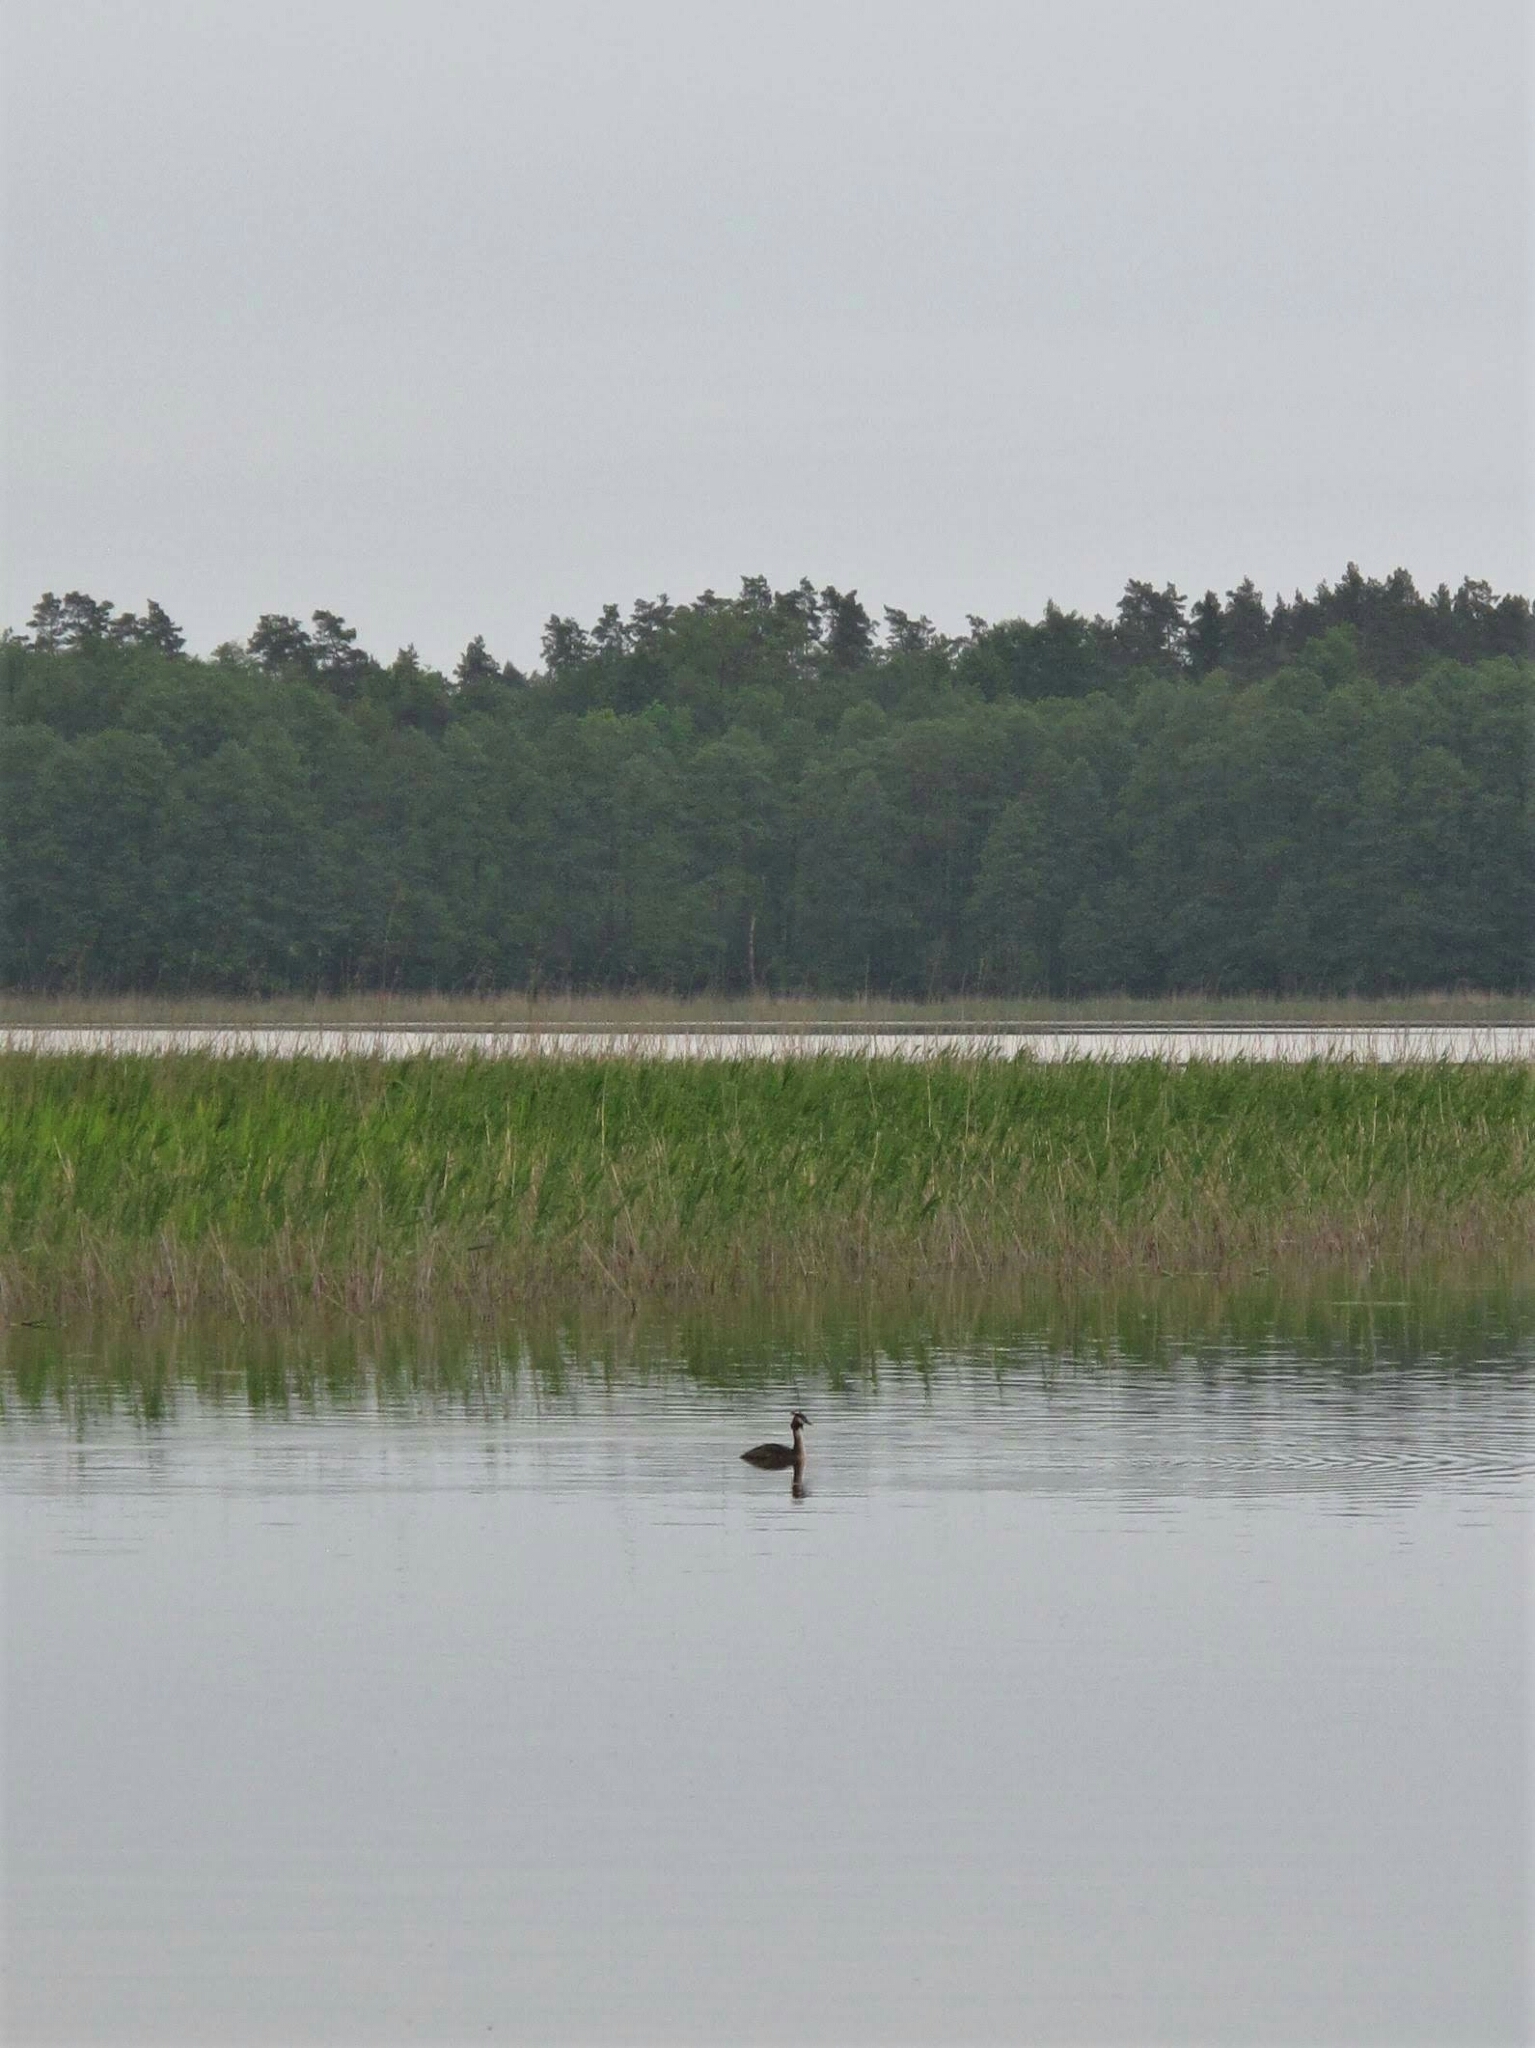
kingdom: Animalia
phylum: Chordata
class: Aves
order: Podicipediformes
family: Podicipedidae
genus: Podiceps
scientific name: Podiceps cristatus
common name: Great crested grebe
